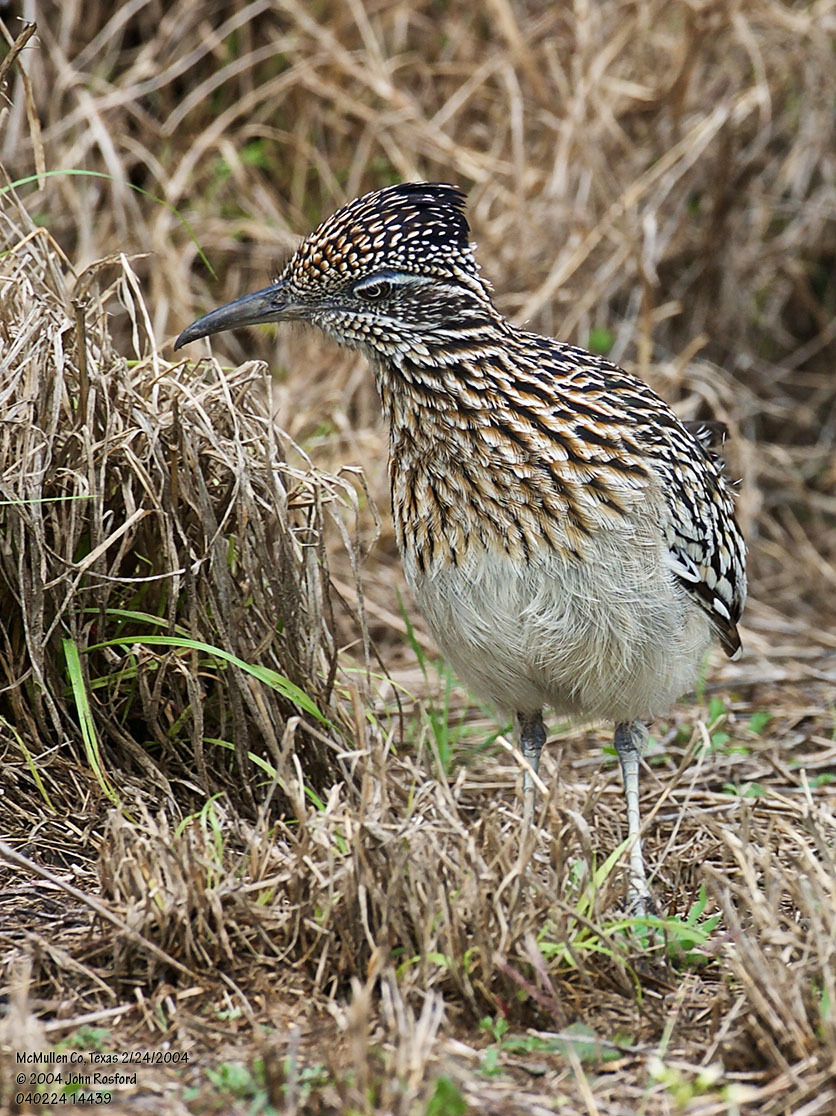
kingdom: Animalia
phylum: Chordata
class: Aves
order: Cuculiformes
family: Cuculidae
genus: Geococcyx
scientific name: Geococcyx californianus
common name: Greater roadrunner
